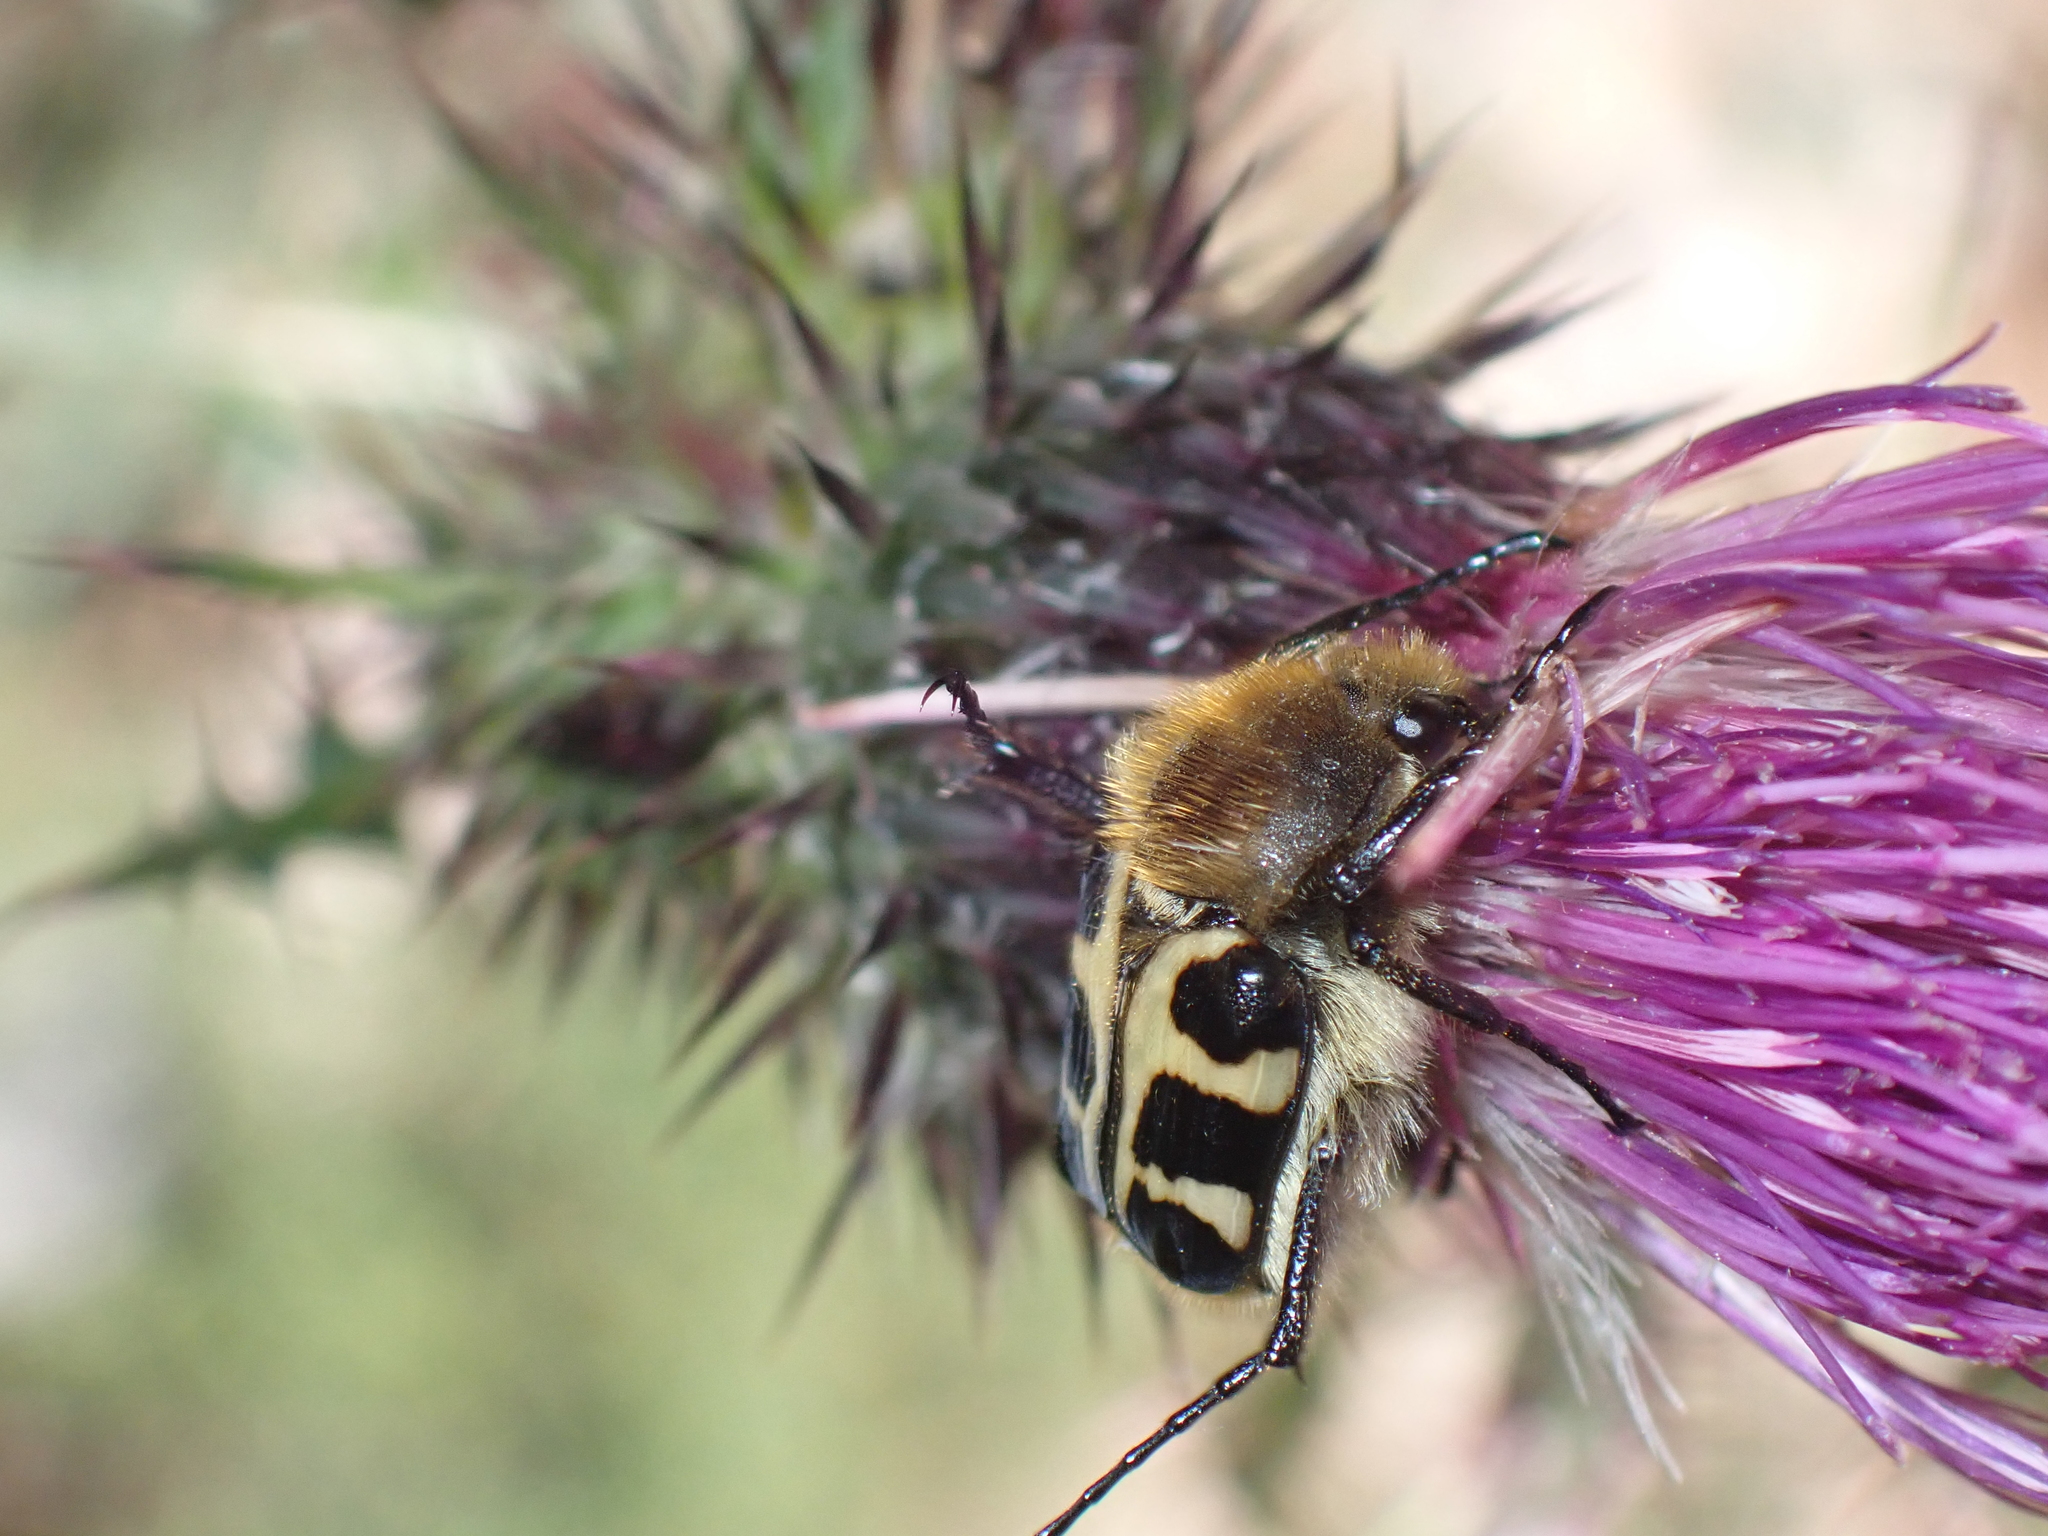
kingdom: Animalia
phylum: Arthropoda
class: Insecta
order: Coleoptera
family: Scarabaeidae
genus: Trichius
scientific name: Trichius gallicus
